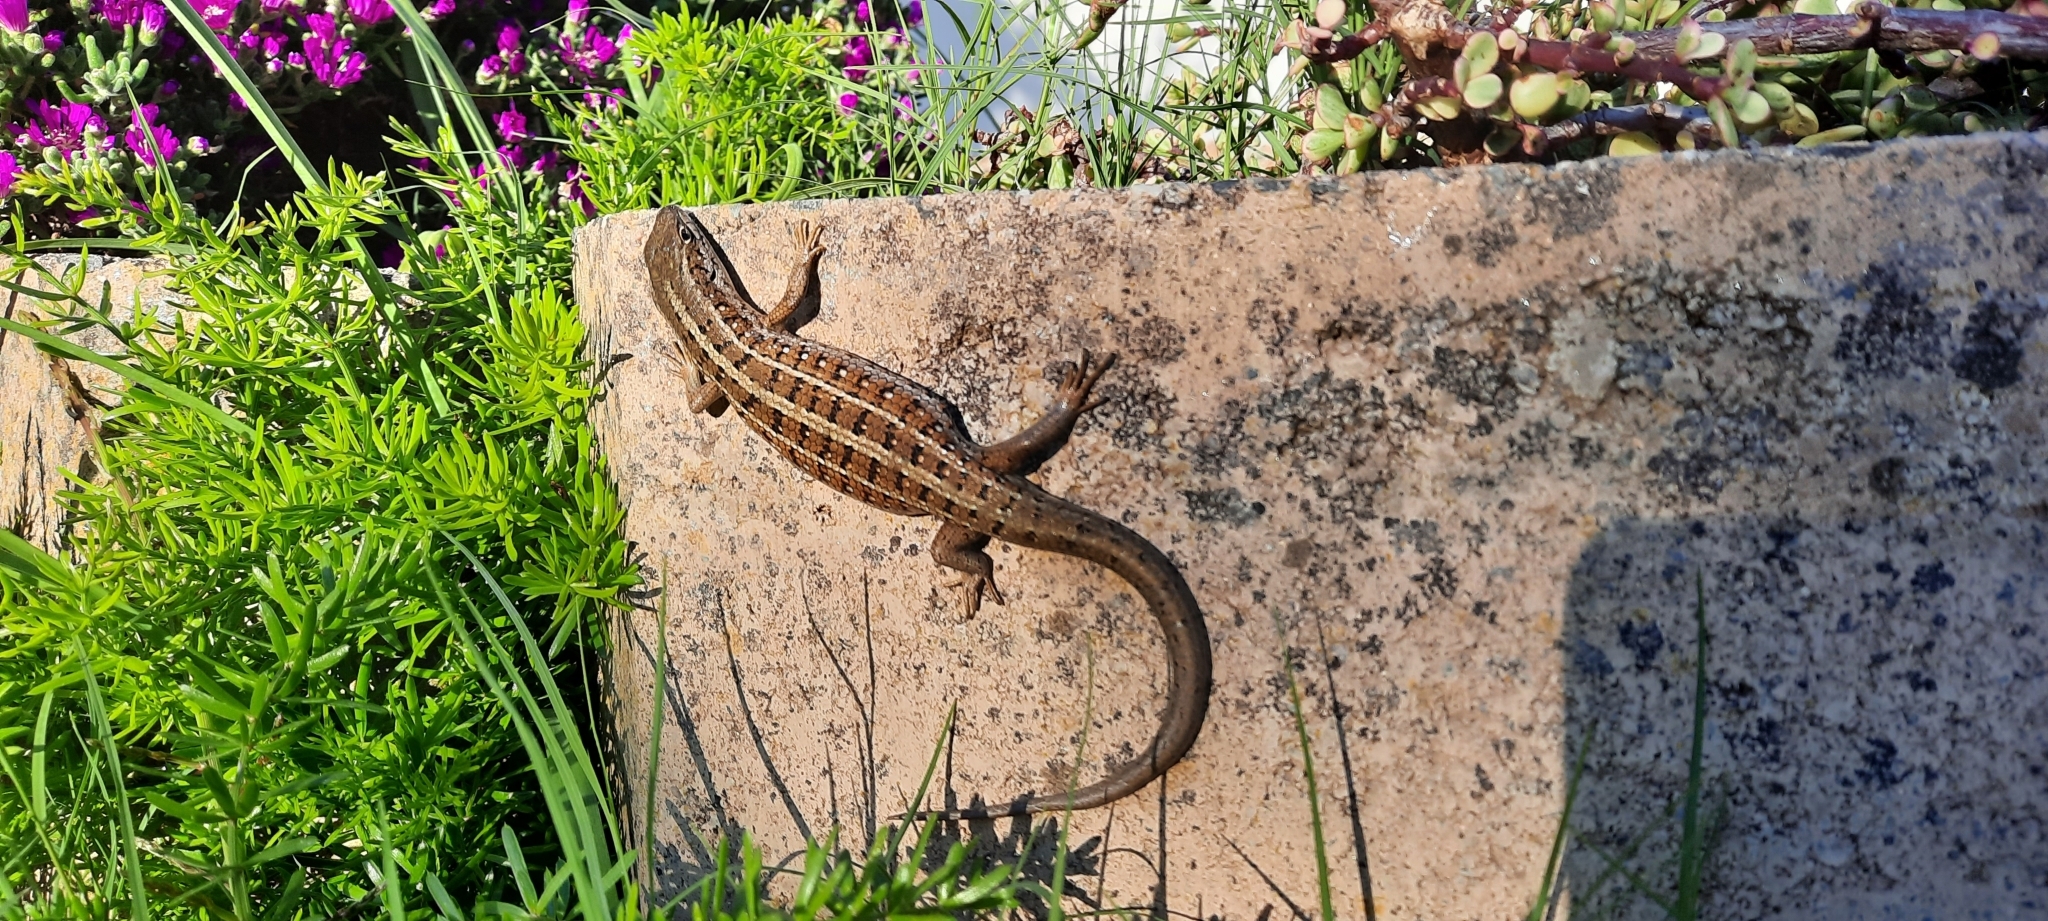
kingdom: Animalia
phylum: Chordata
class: Squamata
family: Scincidae
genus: Trachylepis
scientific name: Trachylepis capensis
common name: Cape skink
